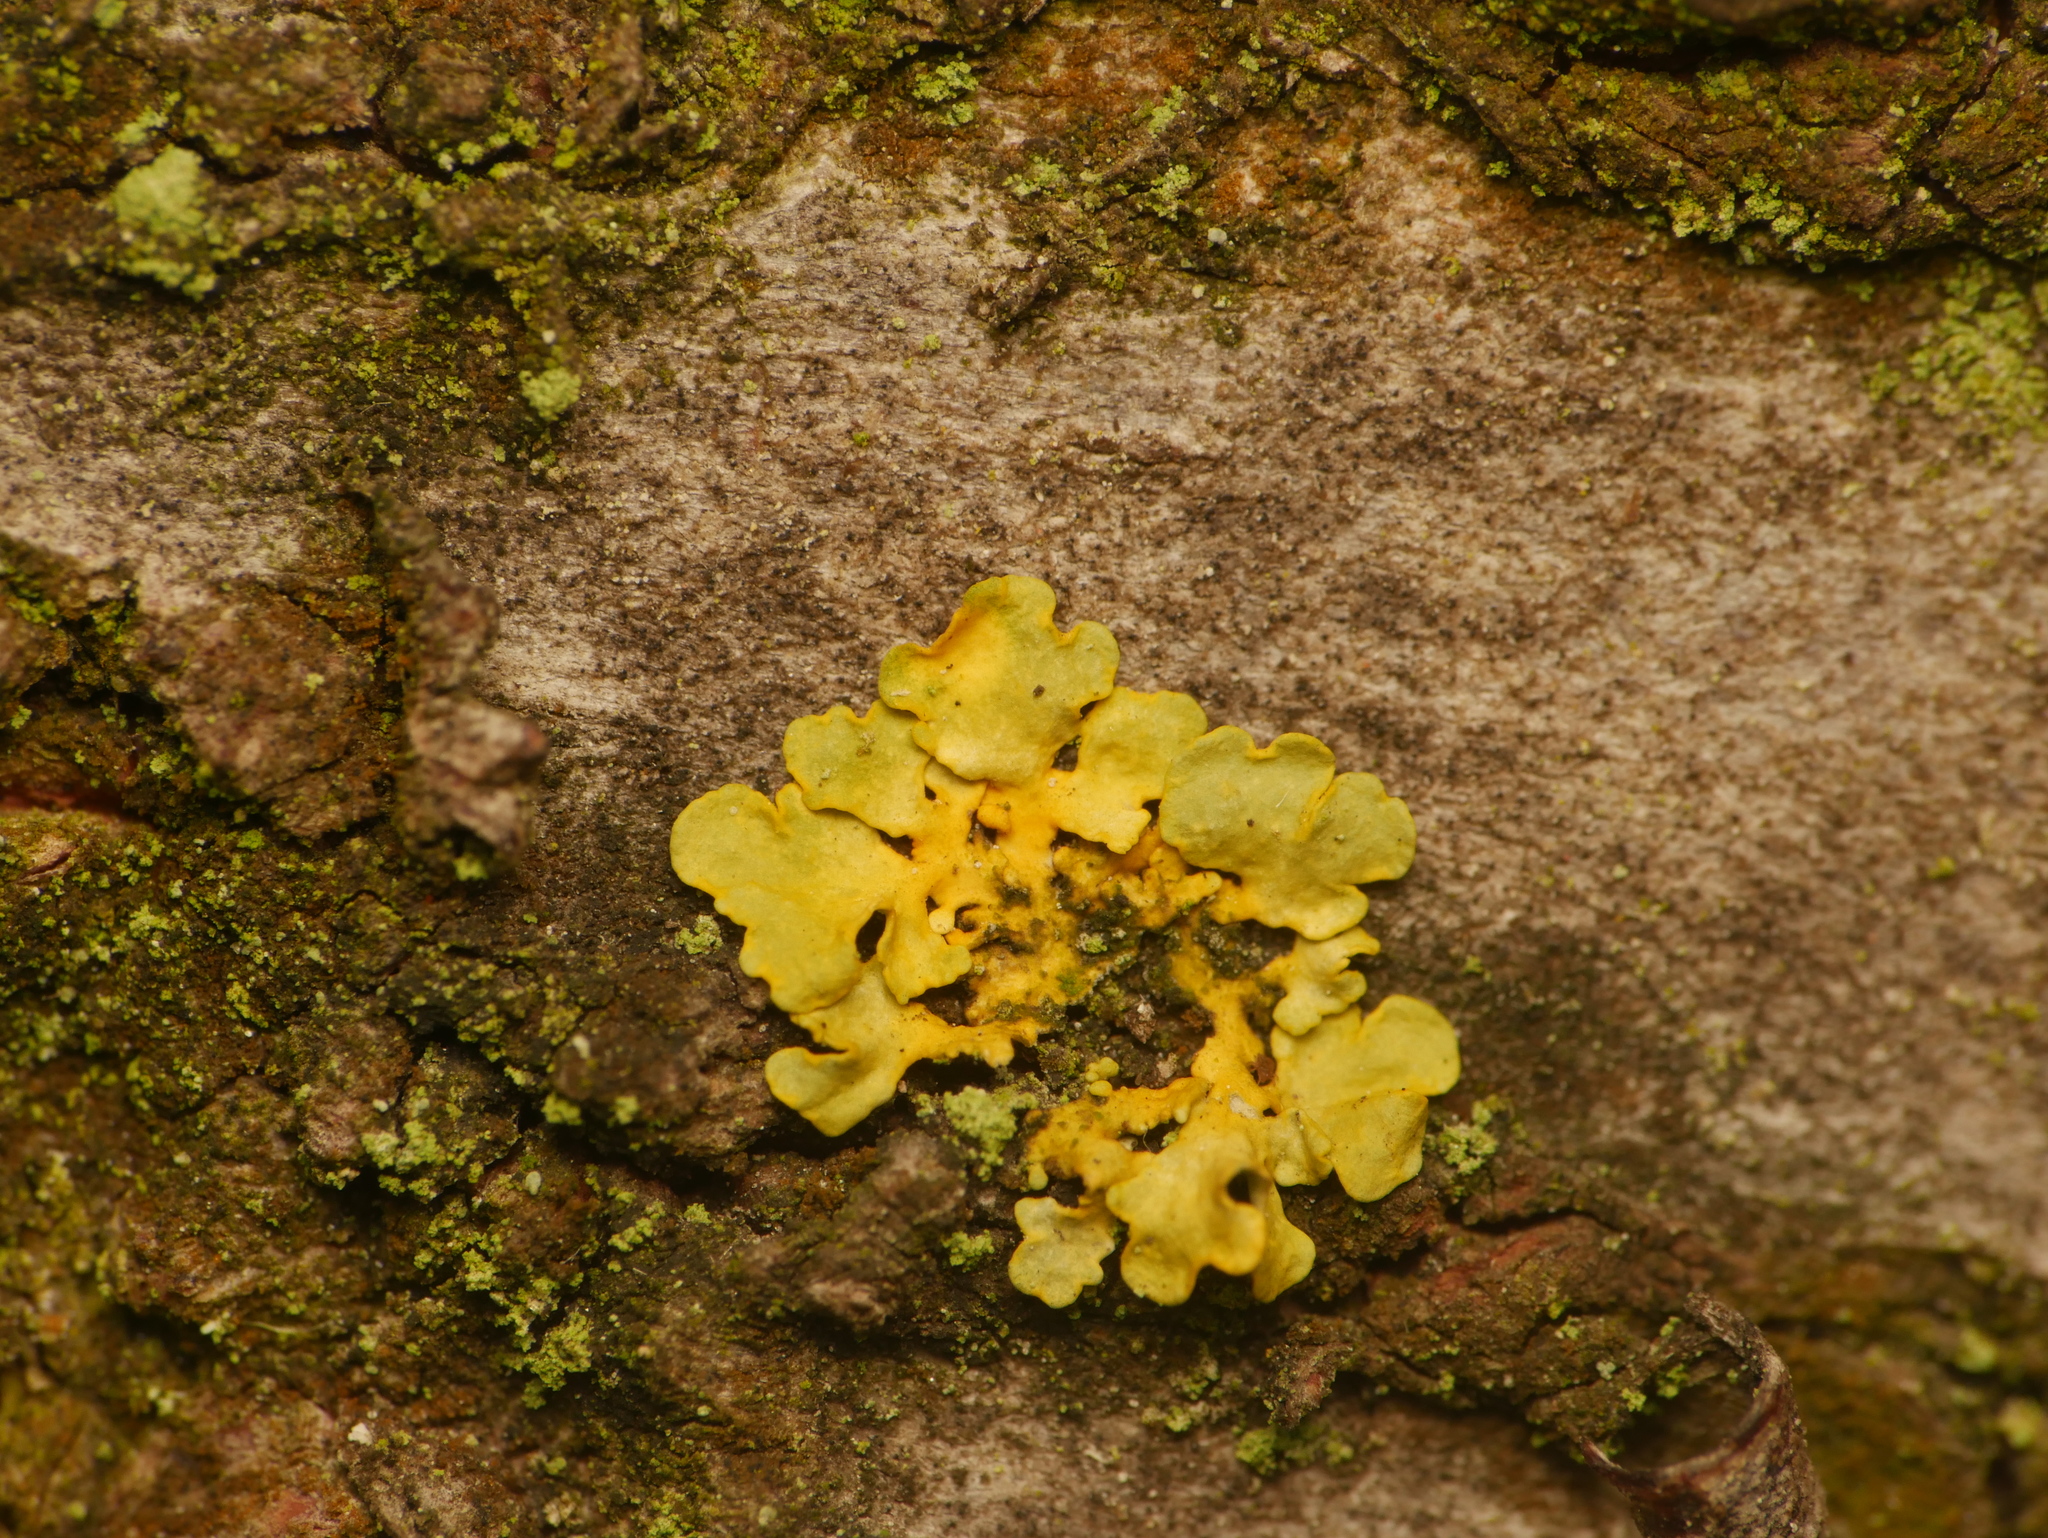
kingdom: Fungi
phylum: Ascomycota
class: Lecanoromycetes
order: Teloschistales
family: Teloschistaceae
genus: Xanthoria
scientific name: Xanthoria parietina
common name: Common orange lichen
